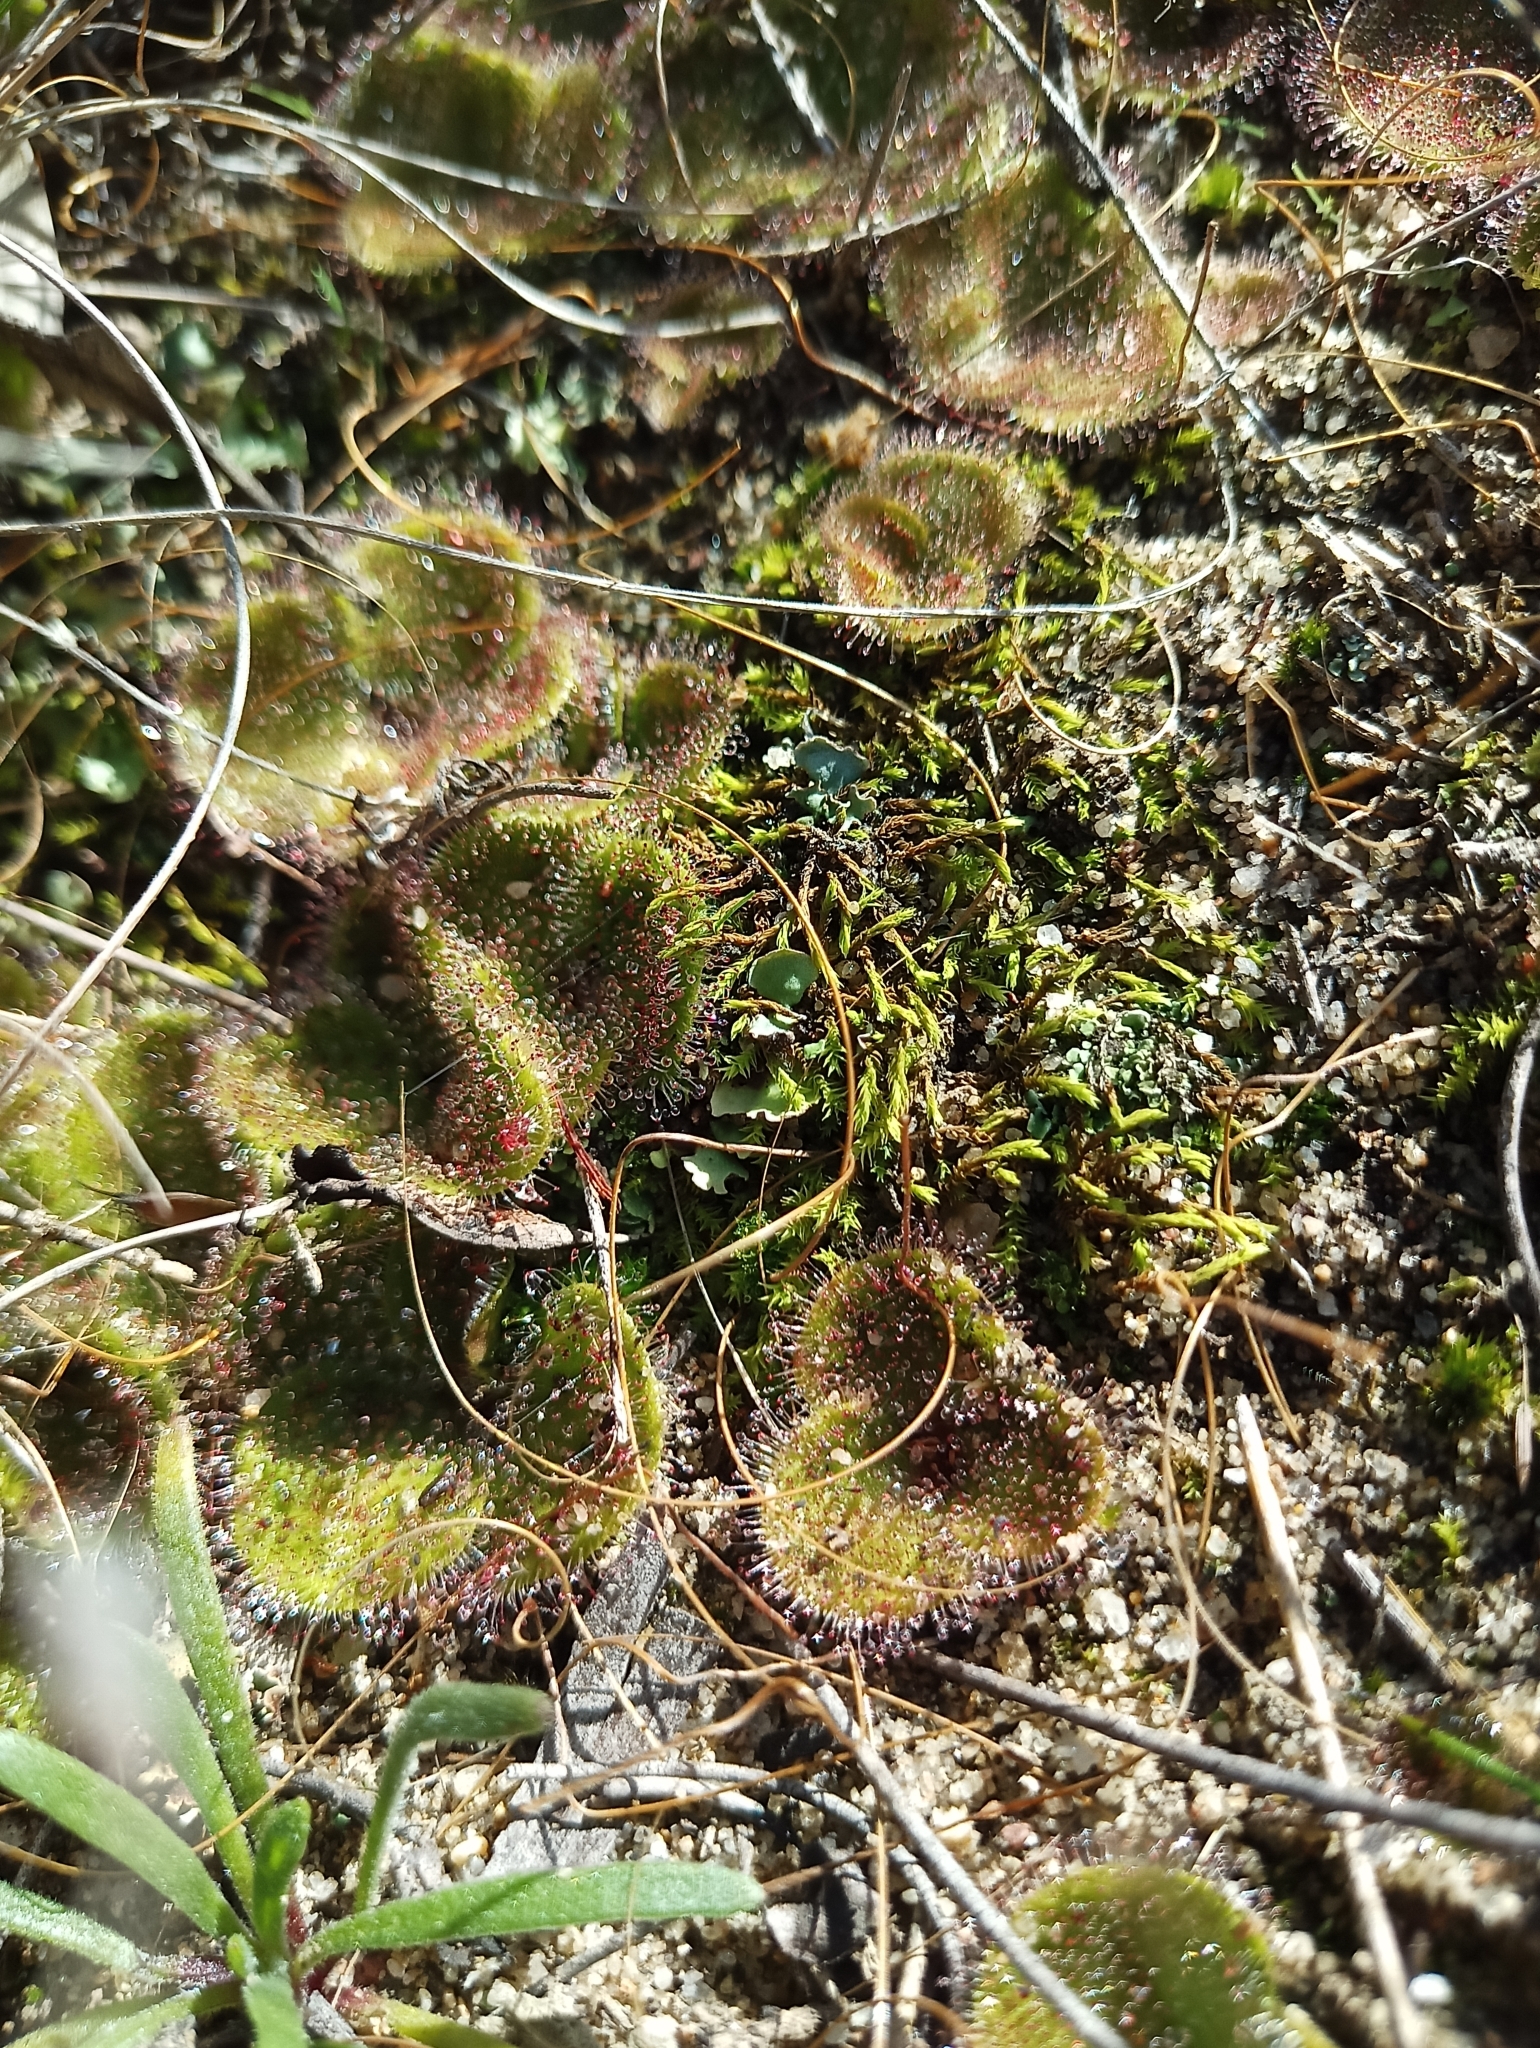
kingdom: Plantae
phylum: Tracheophyta
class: Magnoliopsida
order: Caryophyllales
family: Droseraceae
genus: Drosera
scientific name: Drosera erythrorhiza
